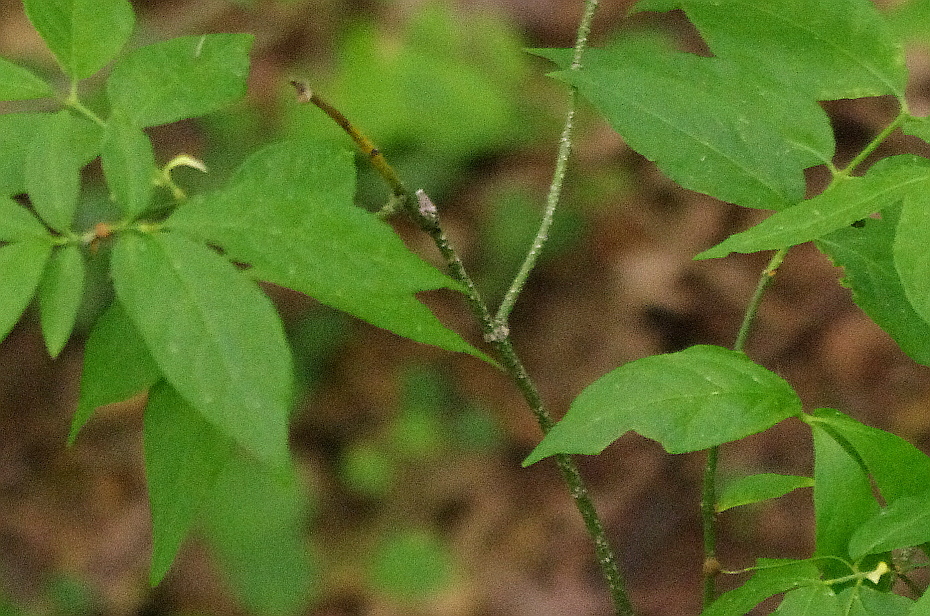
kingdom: Plantae
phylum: Tracheophyta
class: Magnoliopsida
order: Celastrales
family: Celastraceae
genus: Euonymus
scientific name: Euonymus verrucosus
